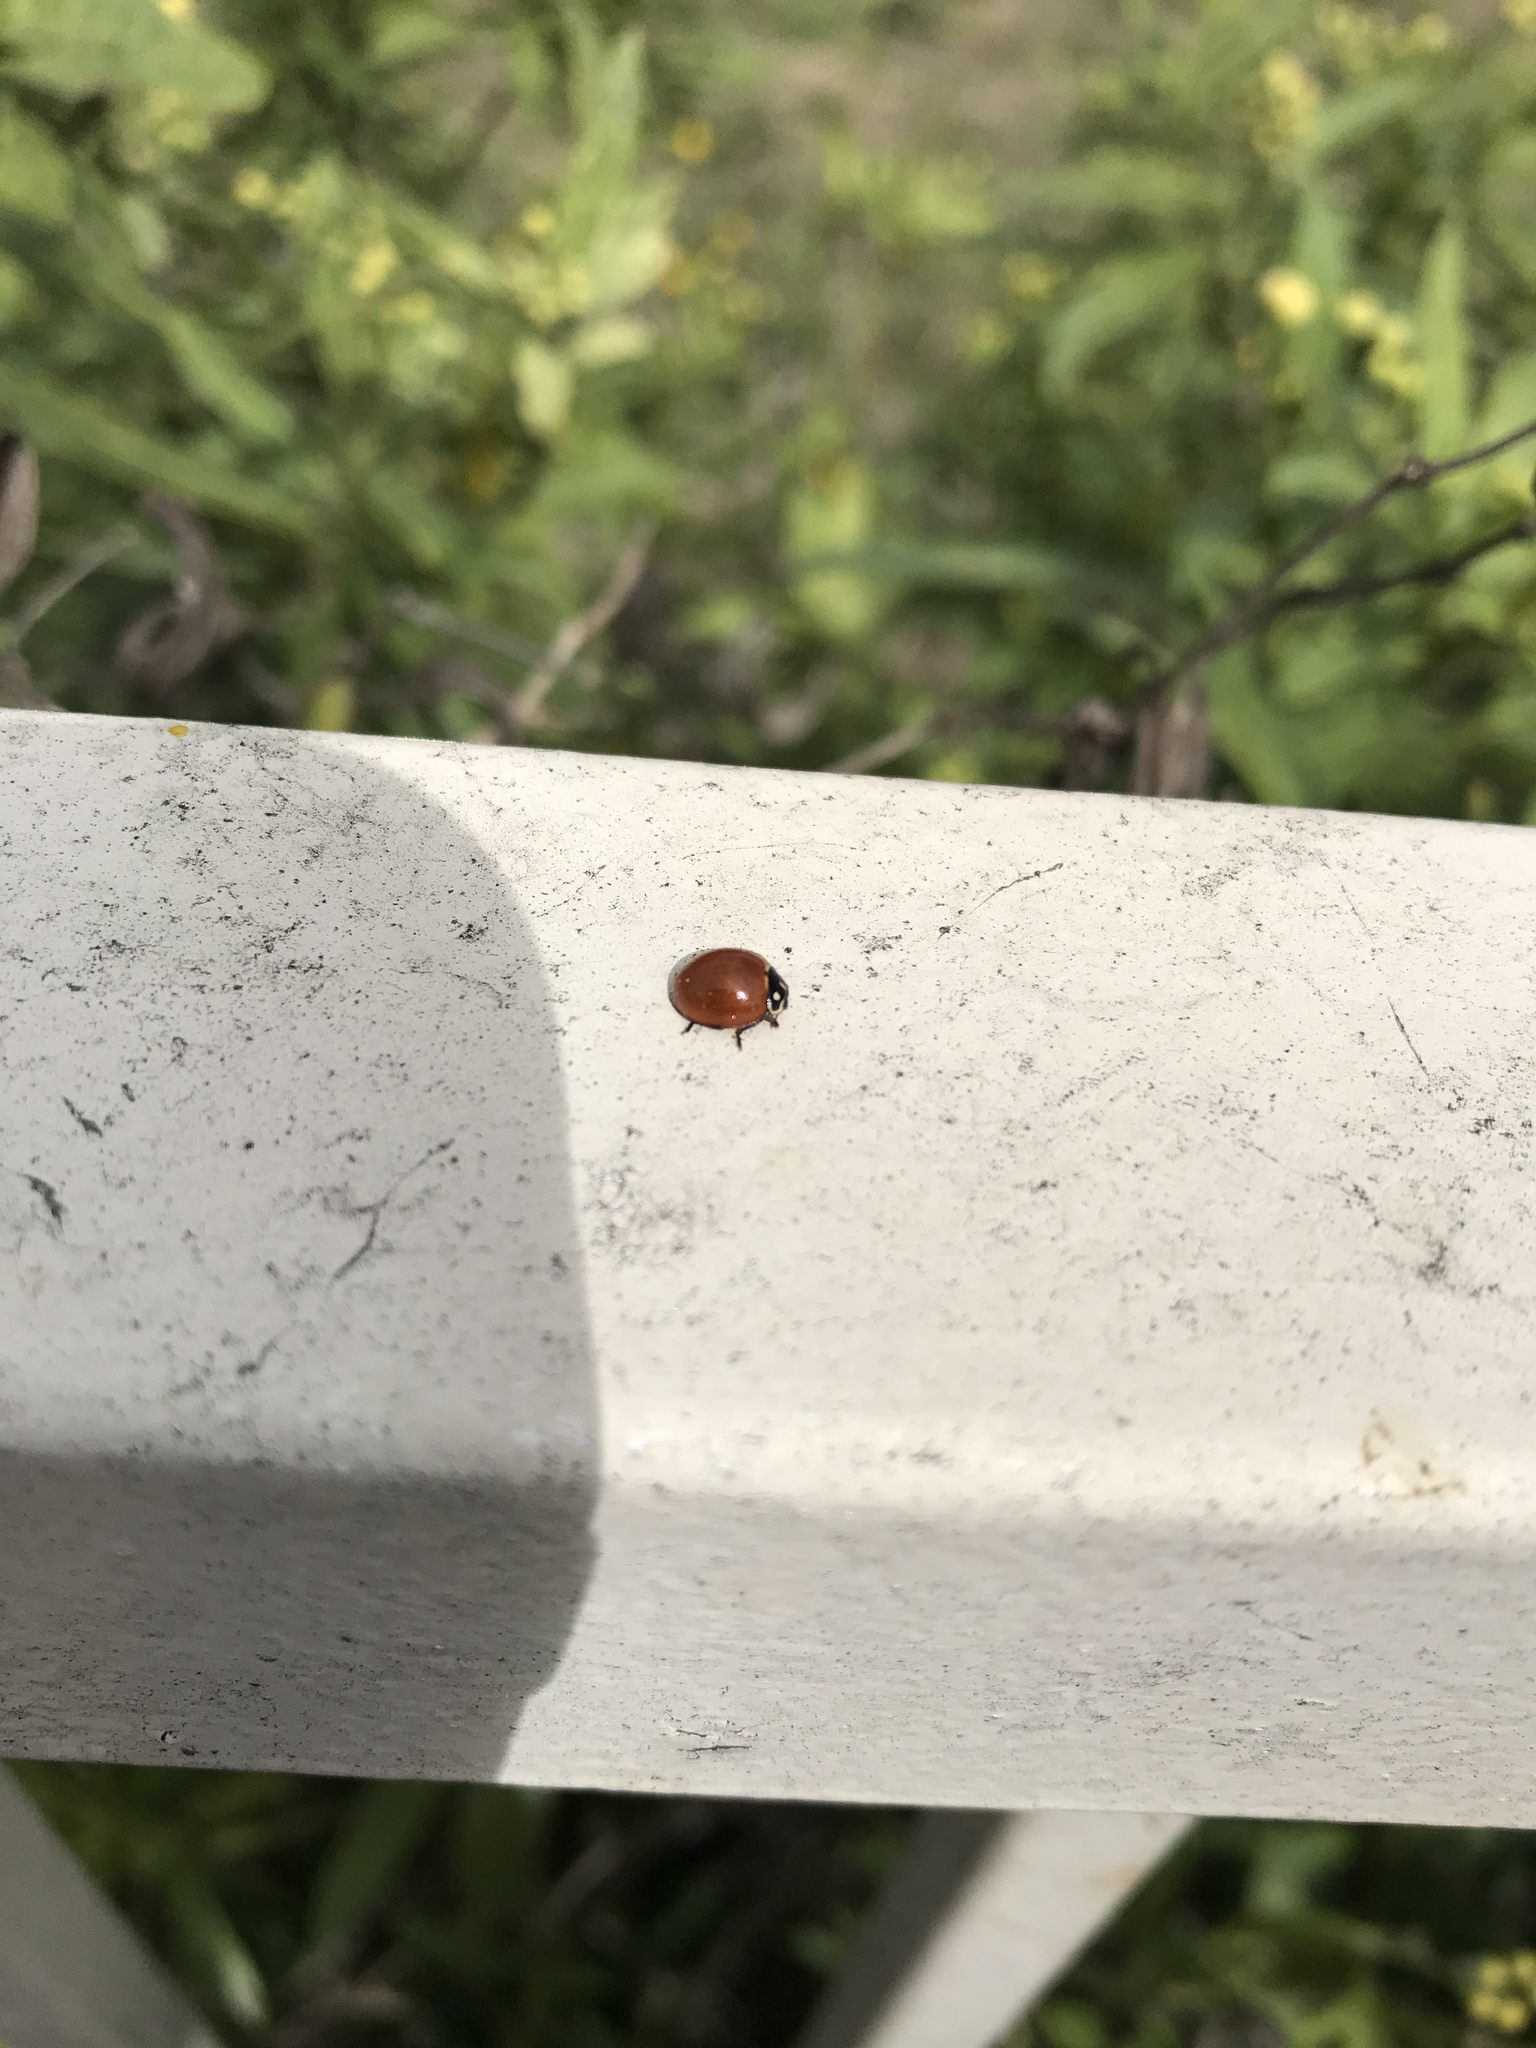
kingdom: Animalia
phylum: Arthropoda
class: Insecta
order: Coleoptera
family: Coccinellidae
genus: Cycloneda
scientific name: Cycloneda sanguinea
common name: Ladybird beetle
